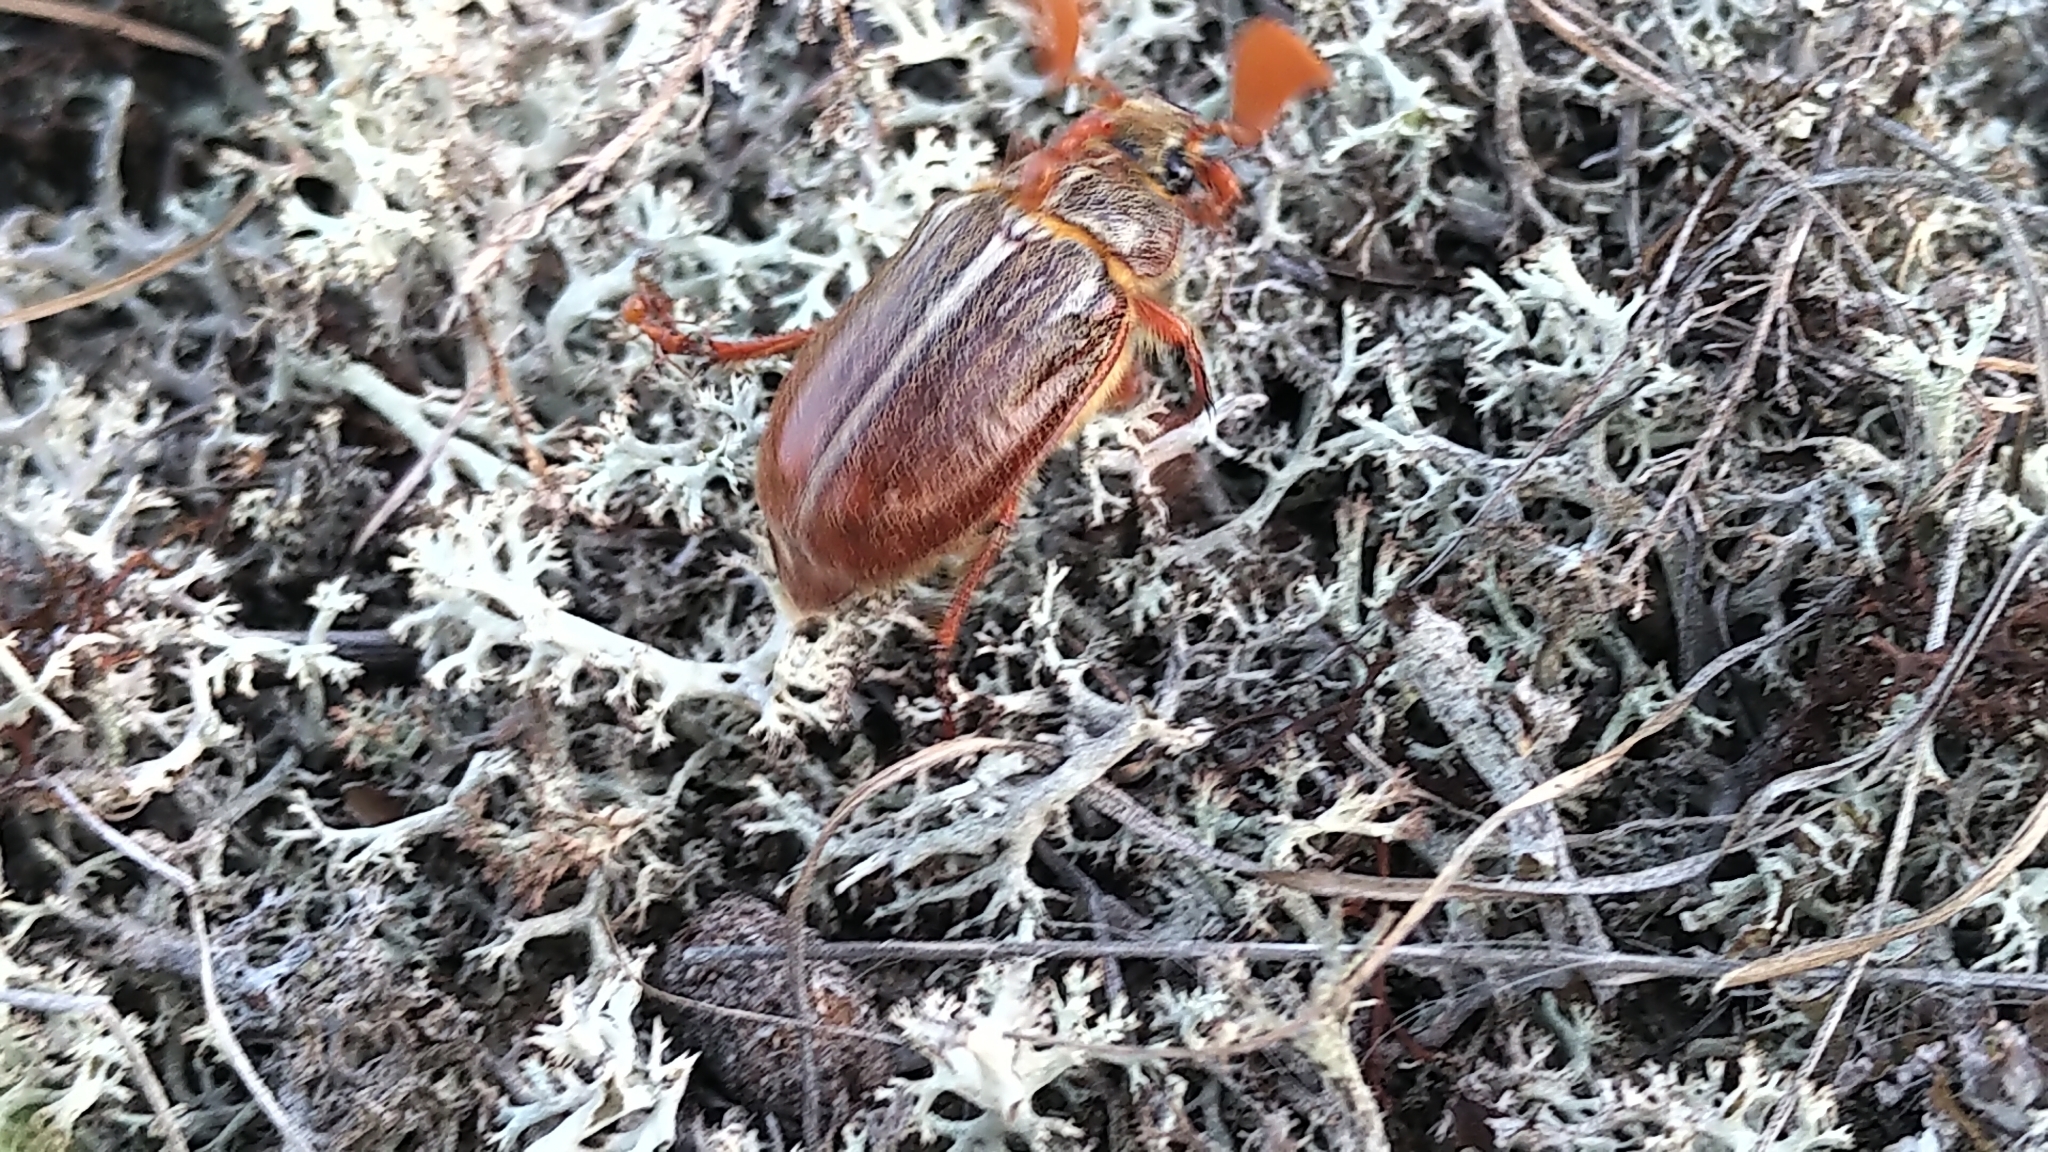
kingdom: Animalia
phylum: Arthropoda
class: Insecta
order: Coleoptera
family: Scarabaeidae
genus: Polyphylla
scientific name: Polyphylla hammondi
